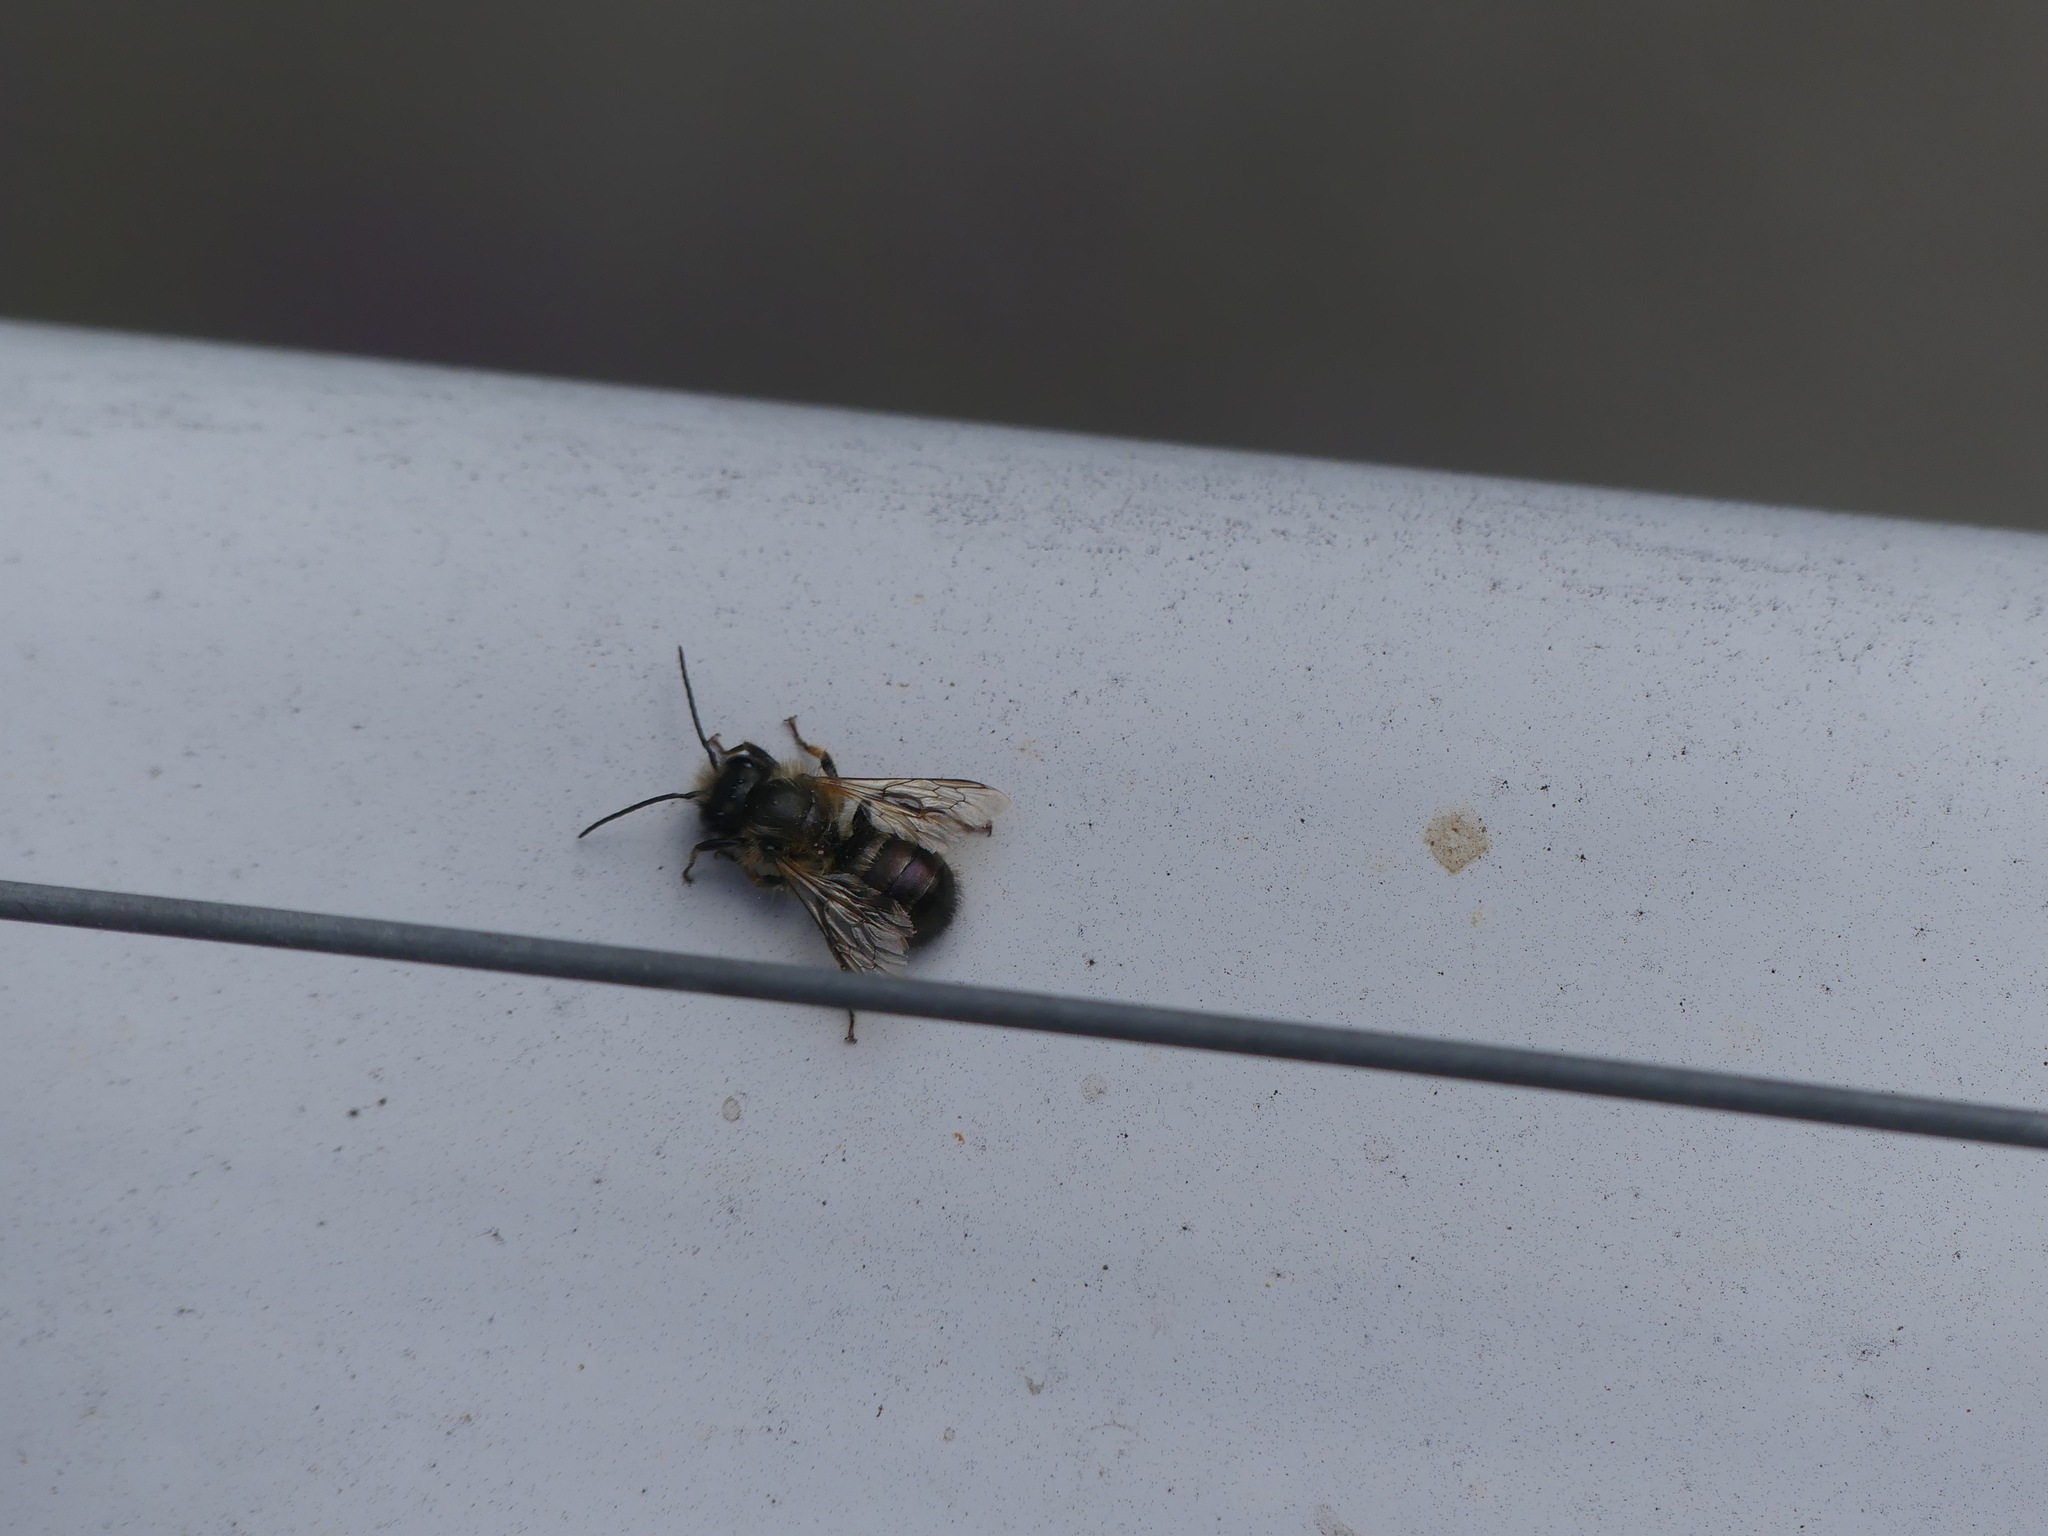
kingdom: Animalia
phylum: Arthropoda
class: Insecta
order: Hymenoptera
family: Megachilidae
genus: Osmia
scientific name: Osmia bicornis
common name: Red mason bee
